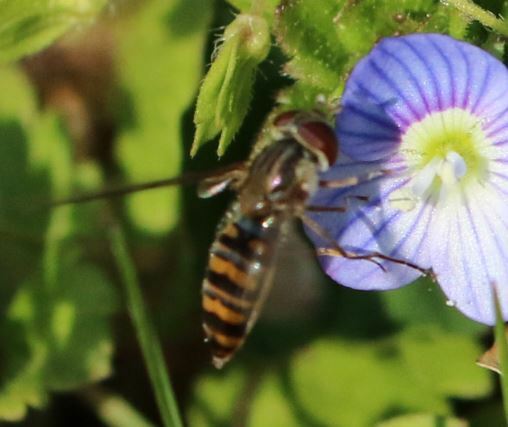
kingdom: Animalia
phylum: Arthropoda
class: Insecta
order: Diptera
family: Syrphidae
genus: Episyrphus
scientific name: Episyrphus balteatus
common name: Marmalade hoverfly
